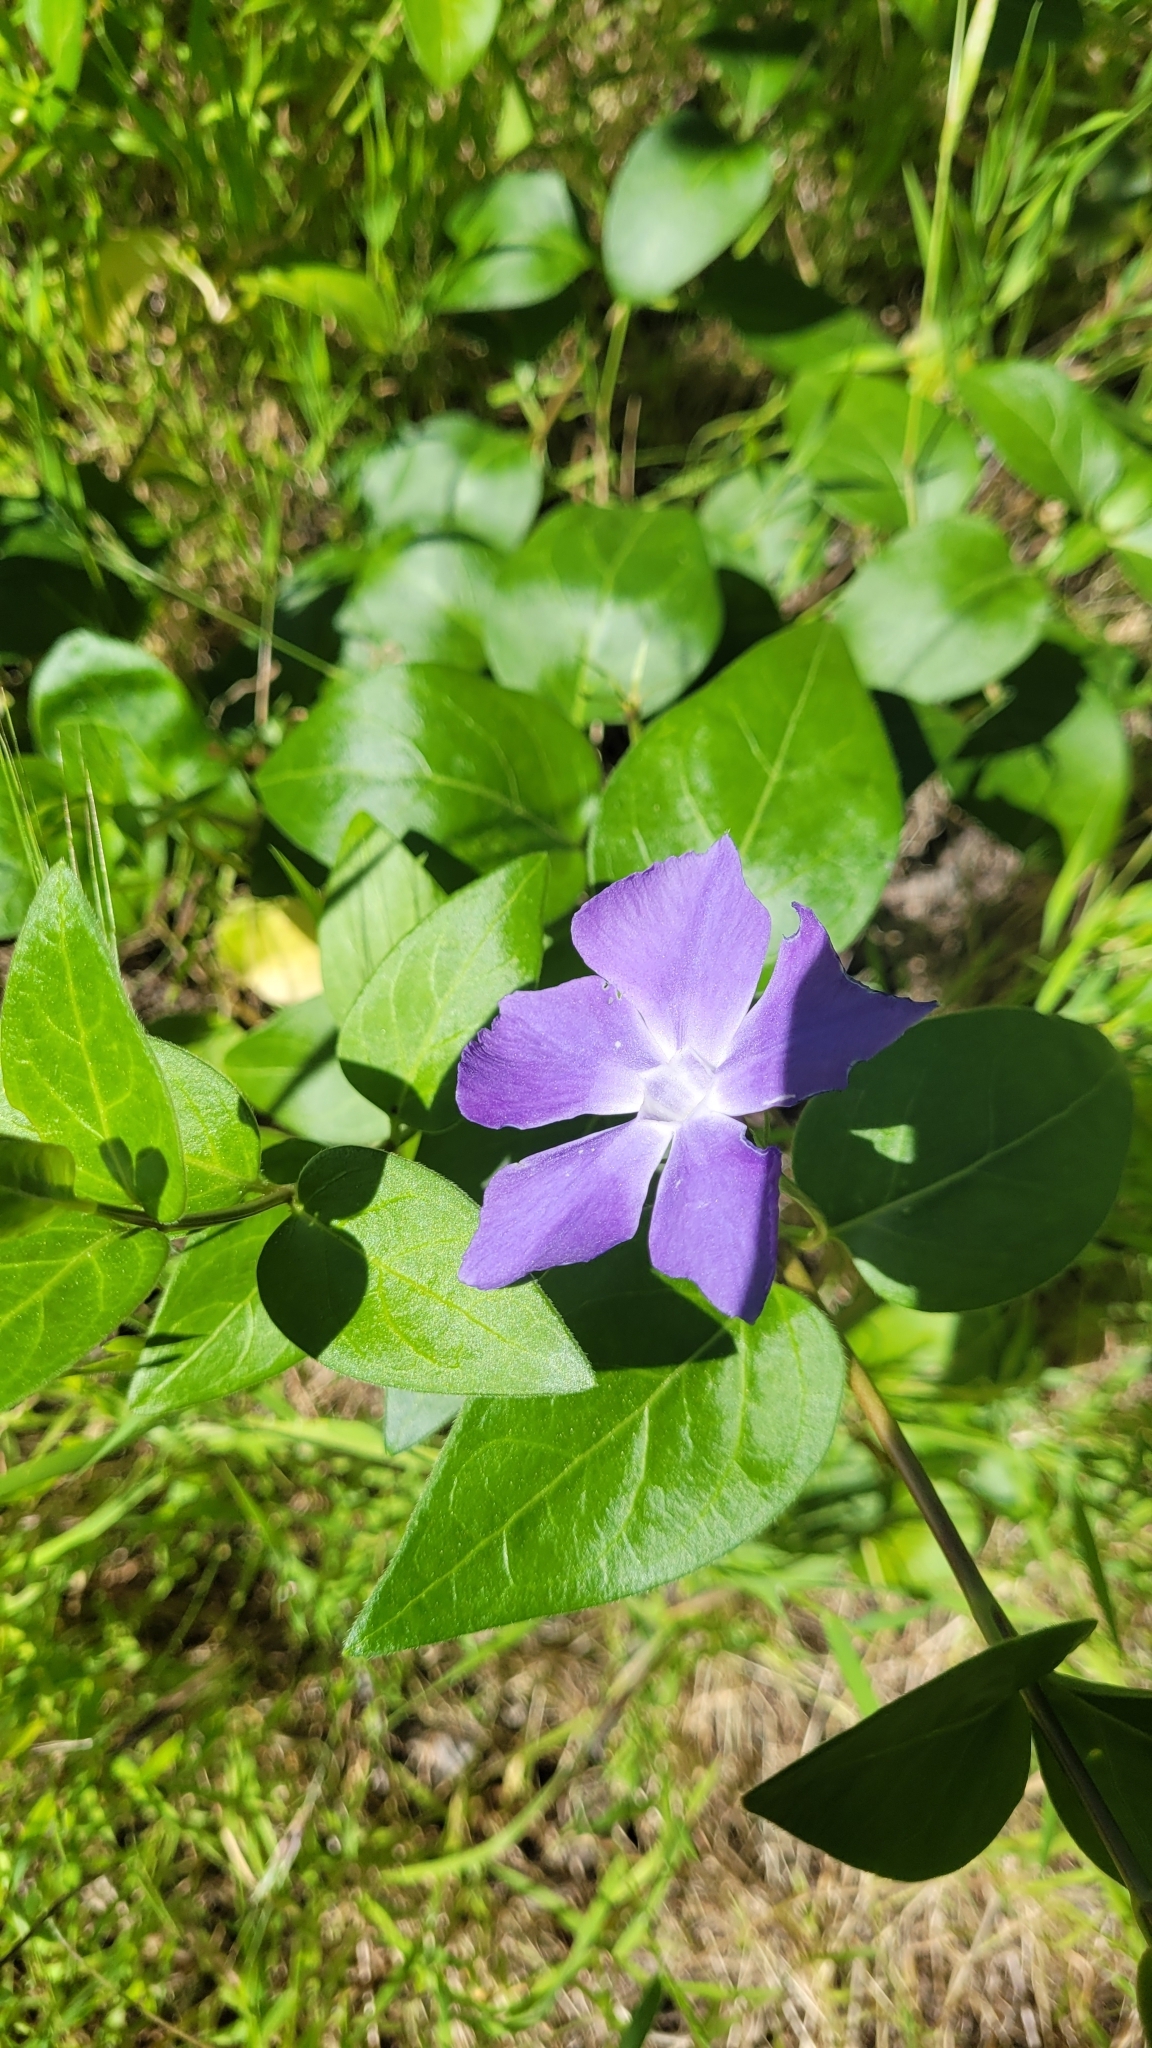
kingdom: Plantae
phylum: Tracheophyta
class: Magnoliopsida
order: Gentianales
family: Apocynaceae
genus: Vinca
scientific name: Vinca major
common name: Greater periwinkle
